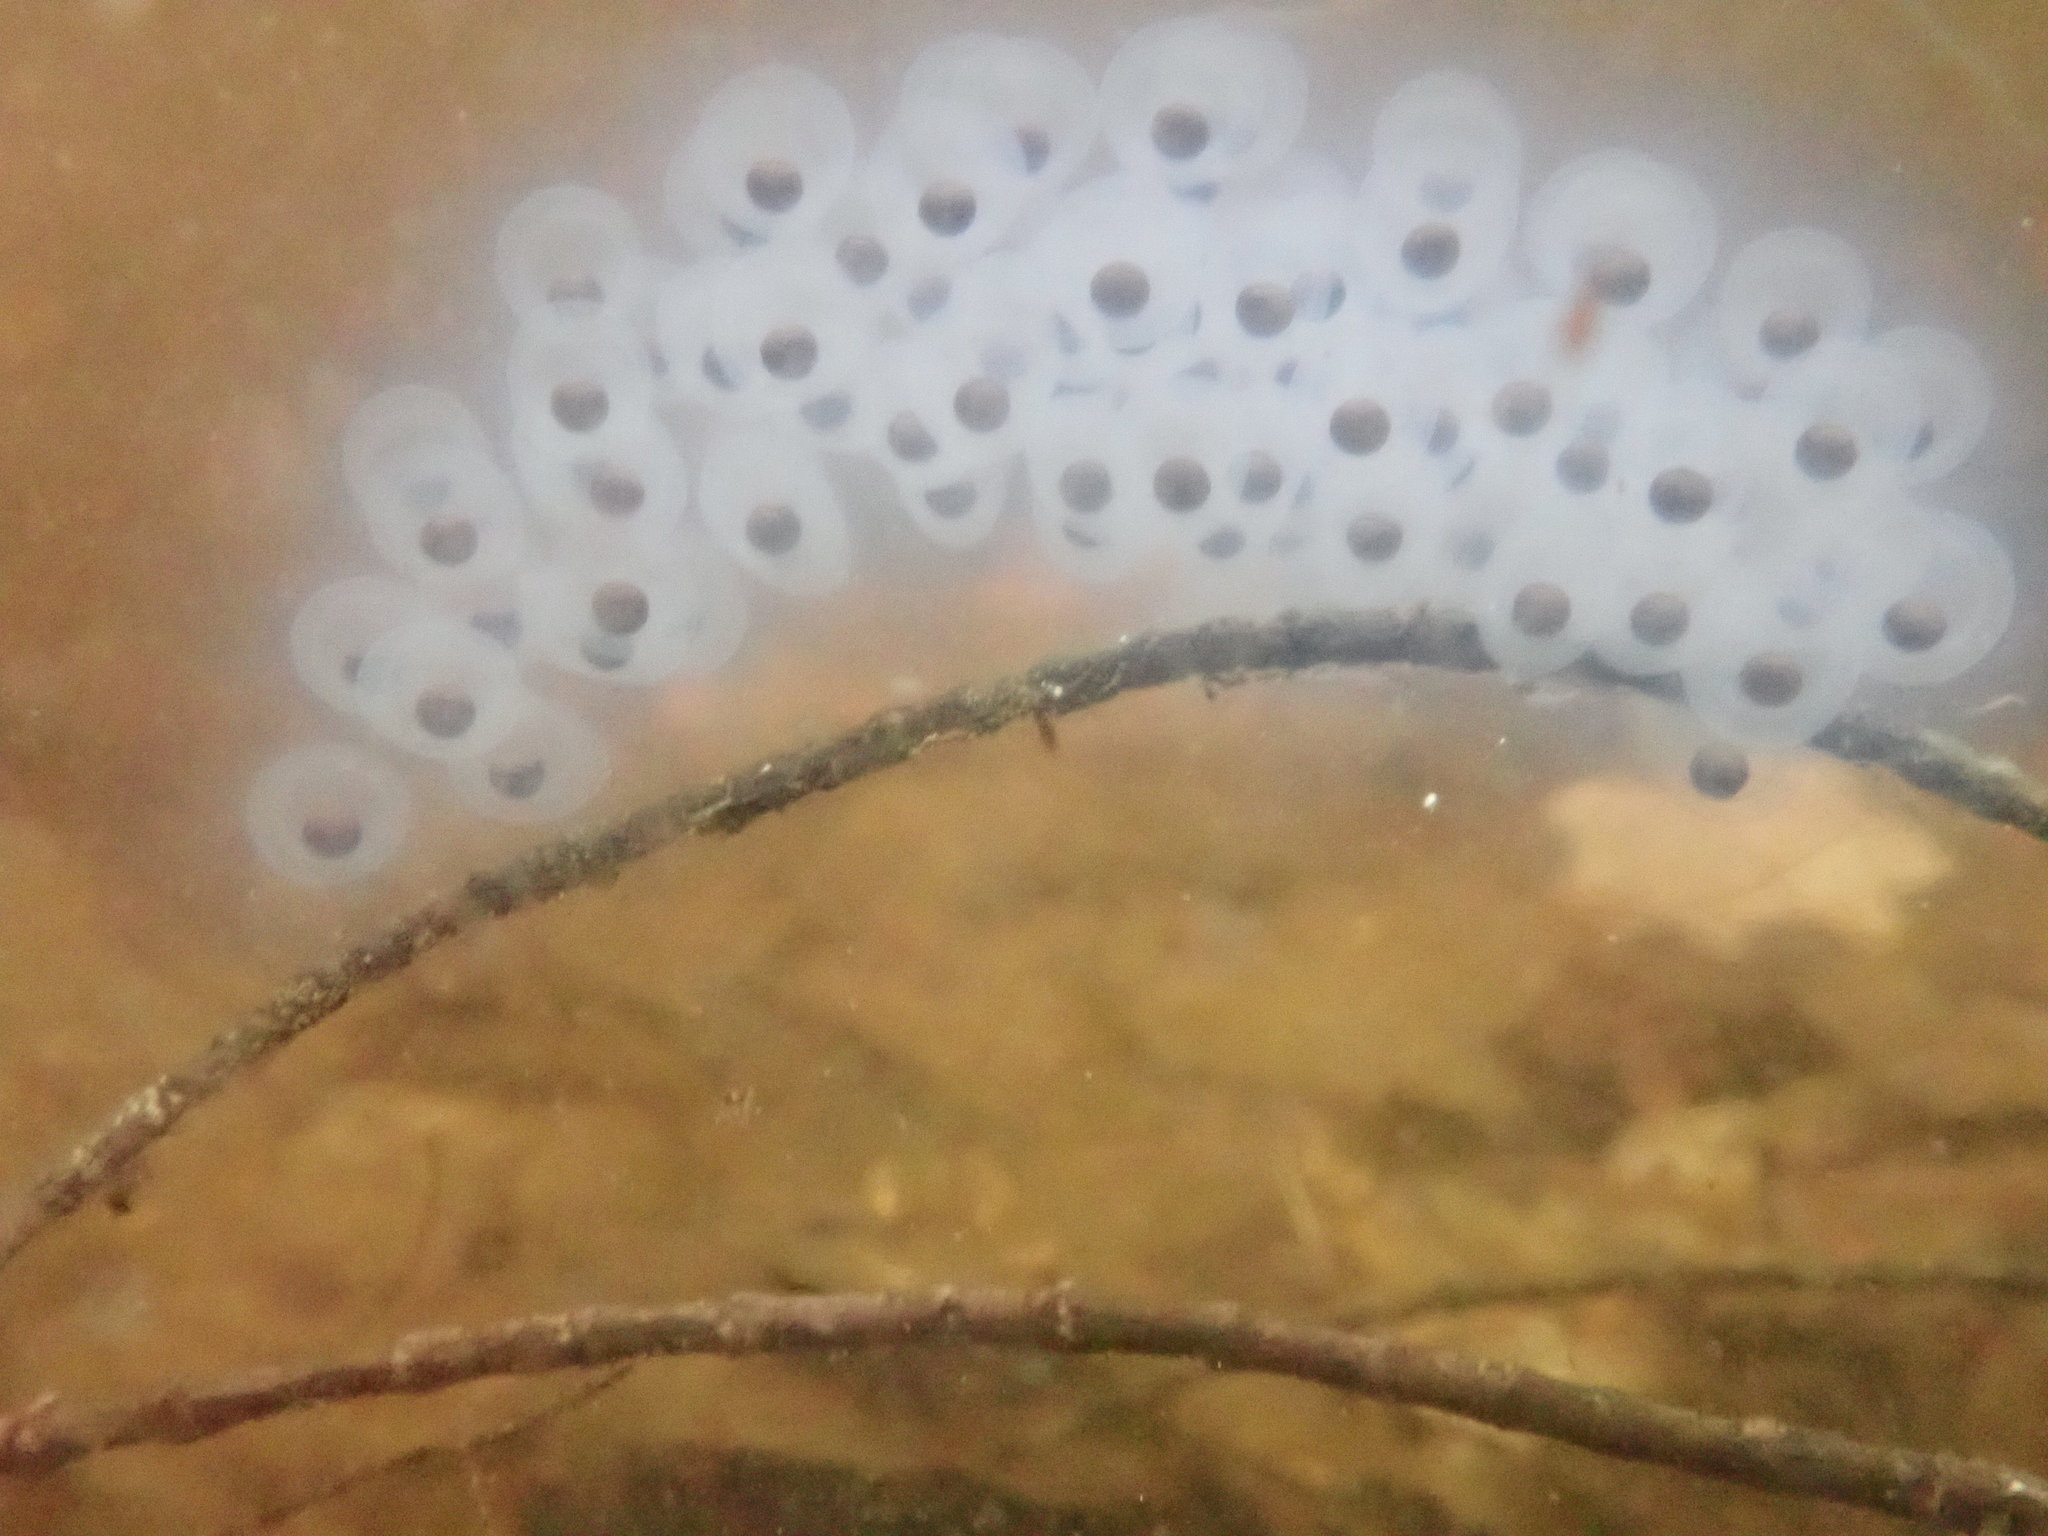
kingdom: Animalia
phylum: Chordata
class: Amphibia
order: Caudata
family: Ambystomatidae
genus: Ambystoma
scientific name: Ambystoma maculatum
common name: Spotted salamander
